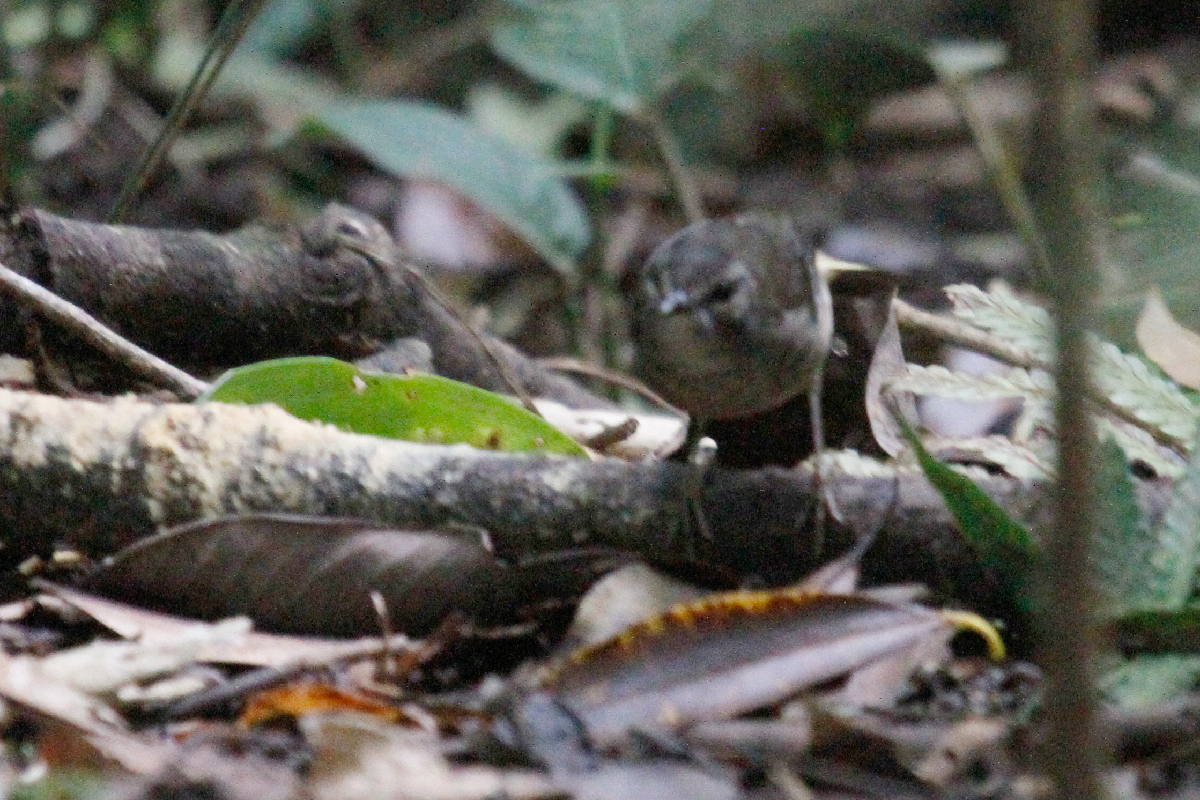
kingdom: Animalia
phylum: Chordata
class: Aves
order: Passeriformes
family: Parulidae
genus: Myiothlypis
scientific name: Myiothlypis fulvicauda
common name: Buff-rumped warbler
